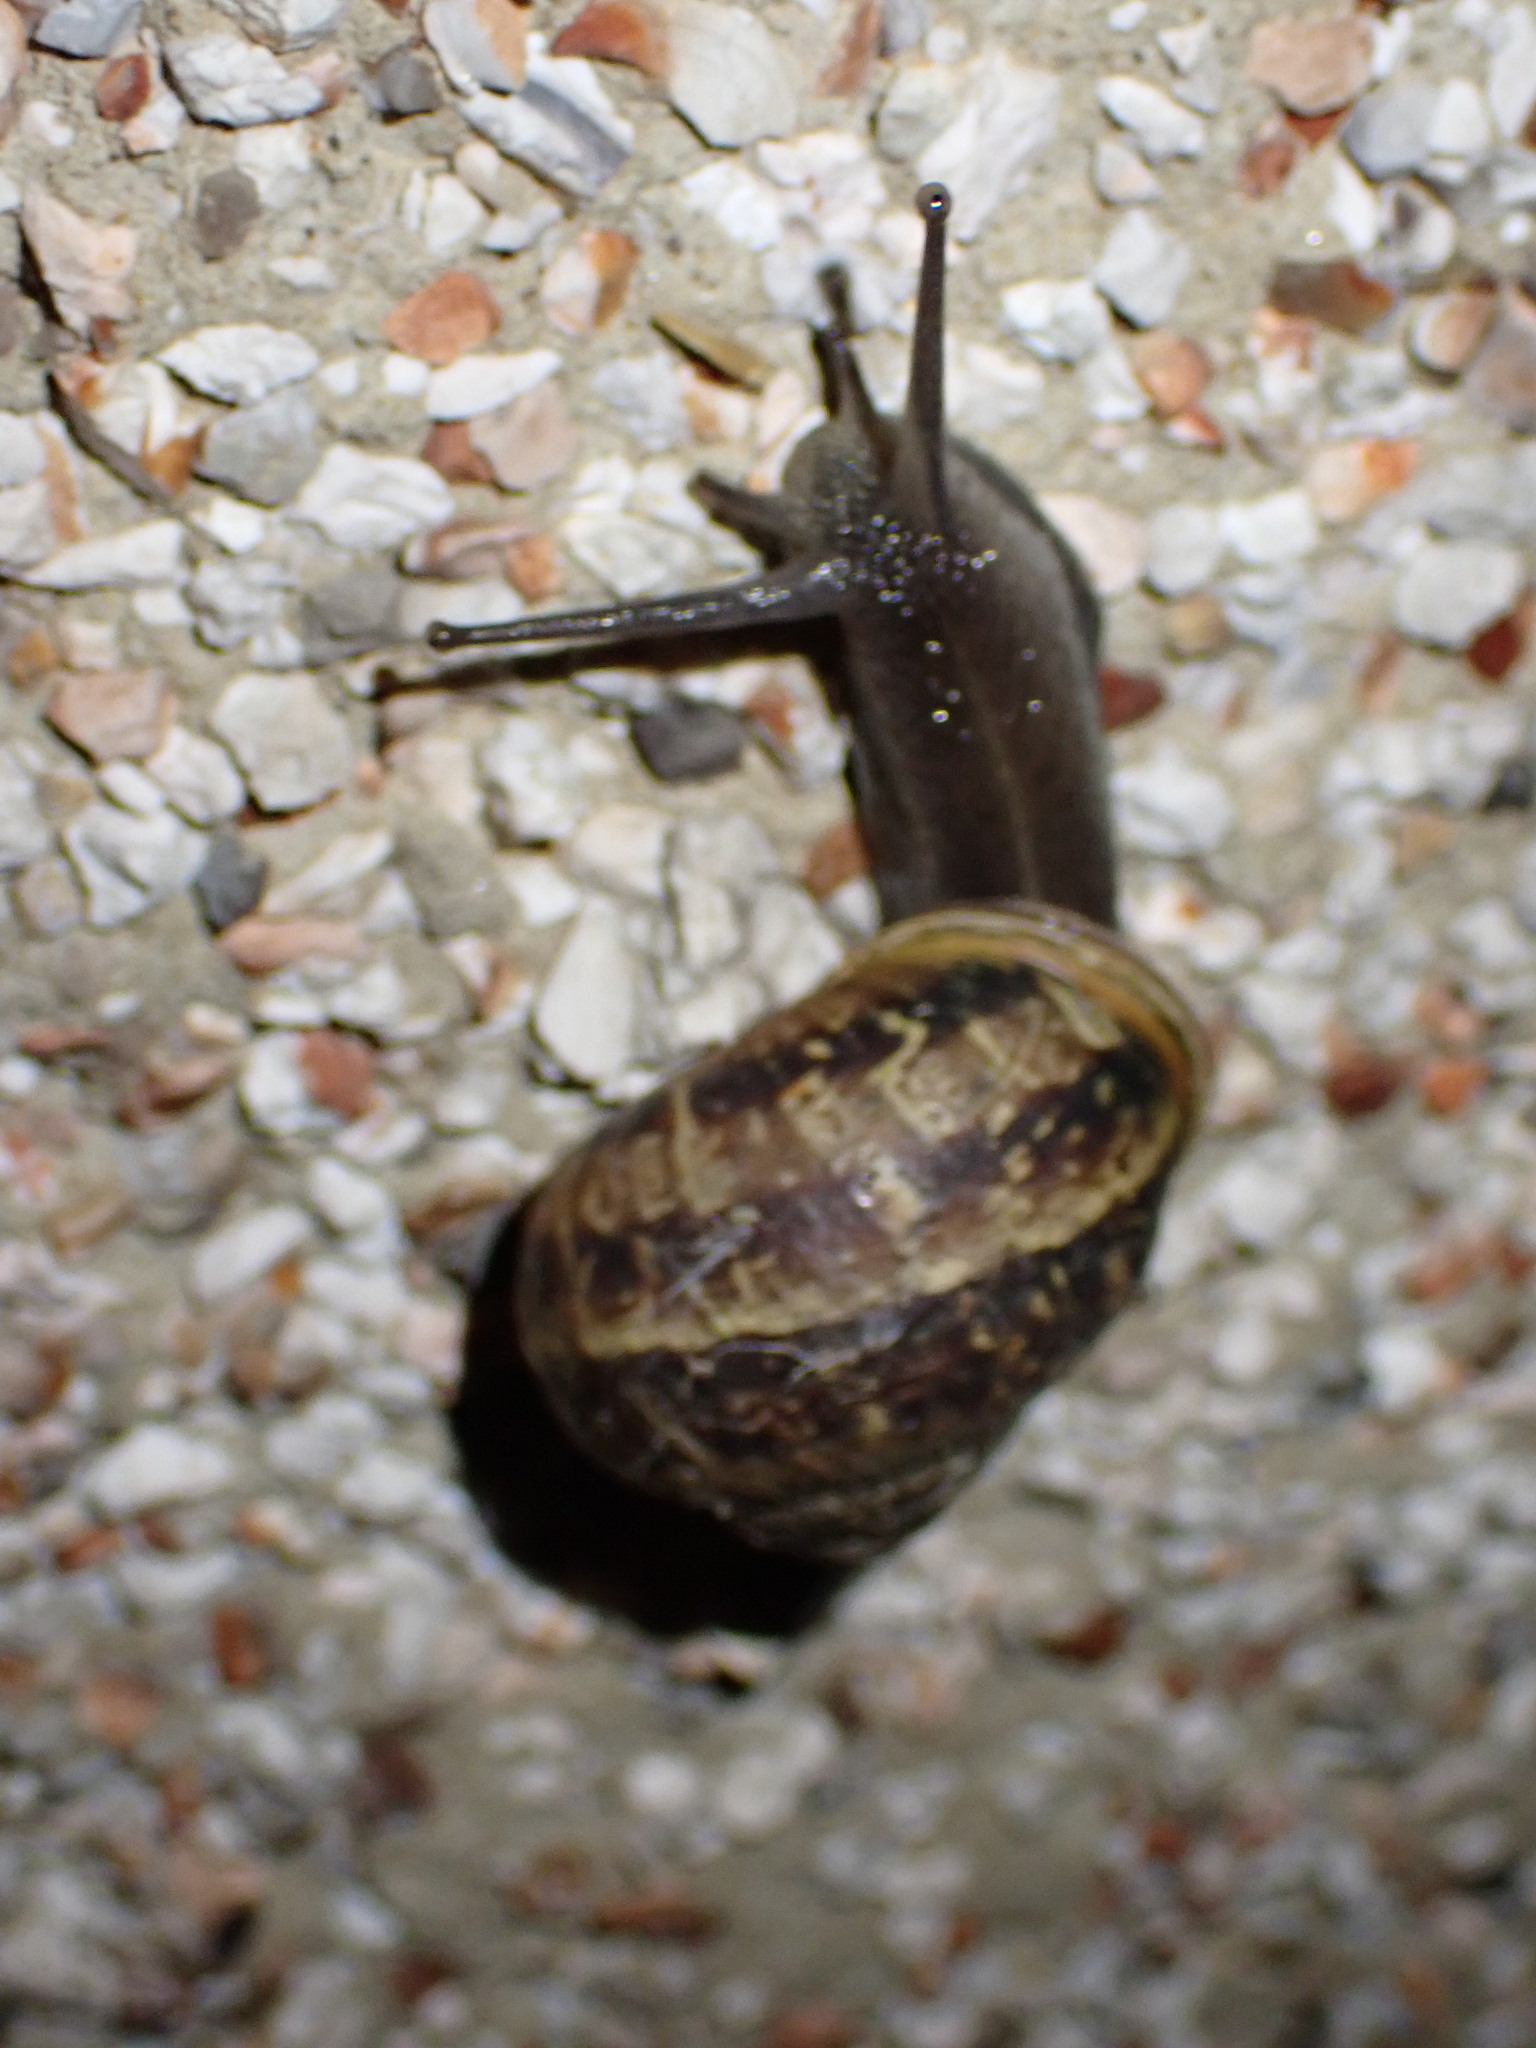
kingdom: Animalia
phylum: Mollusca
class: Gastropoda
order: Stylommatophora
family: Helicidae
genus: Cornu
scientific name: Cornu aspersum
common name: Brown garden snail
